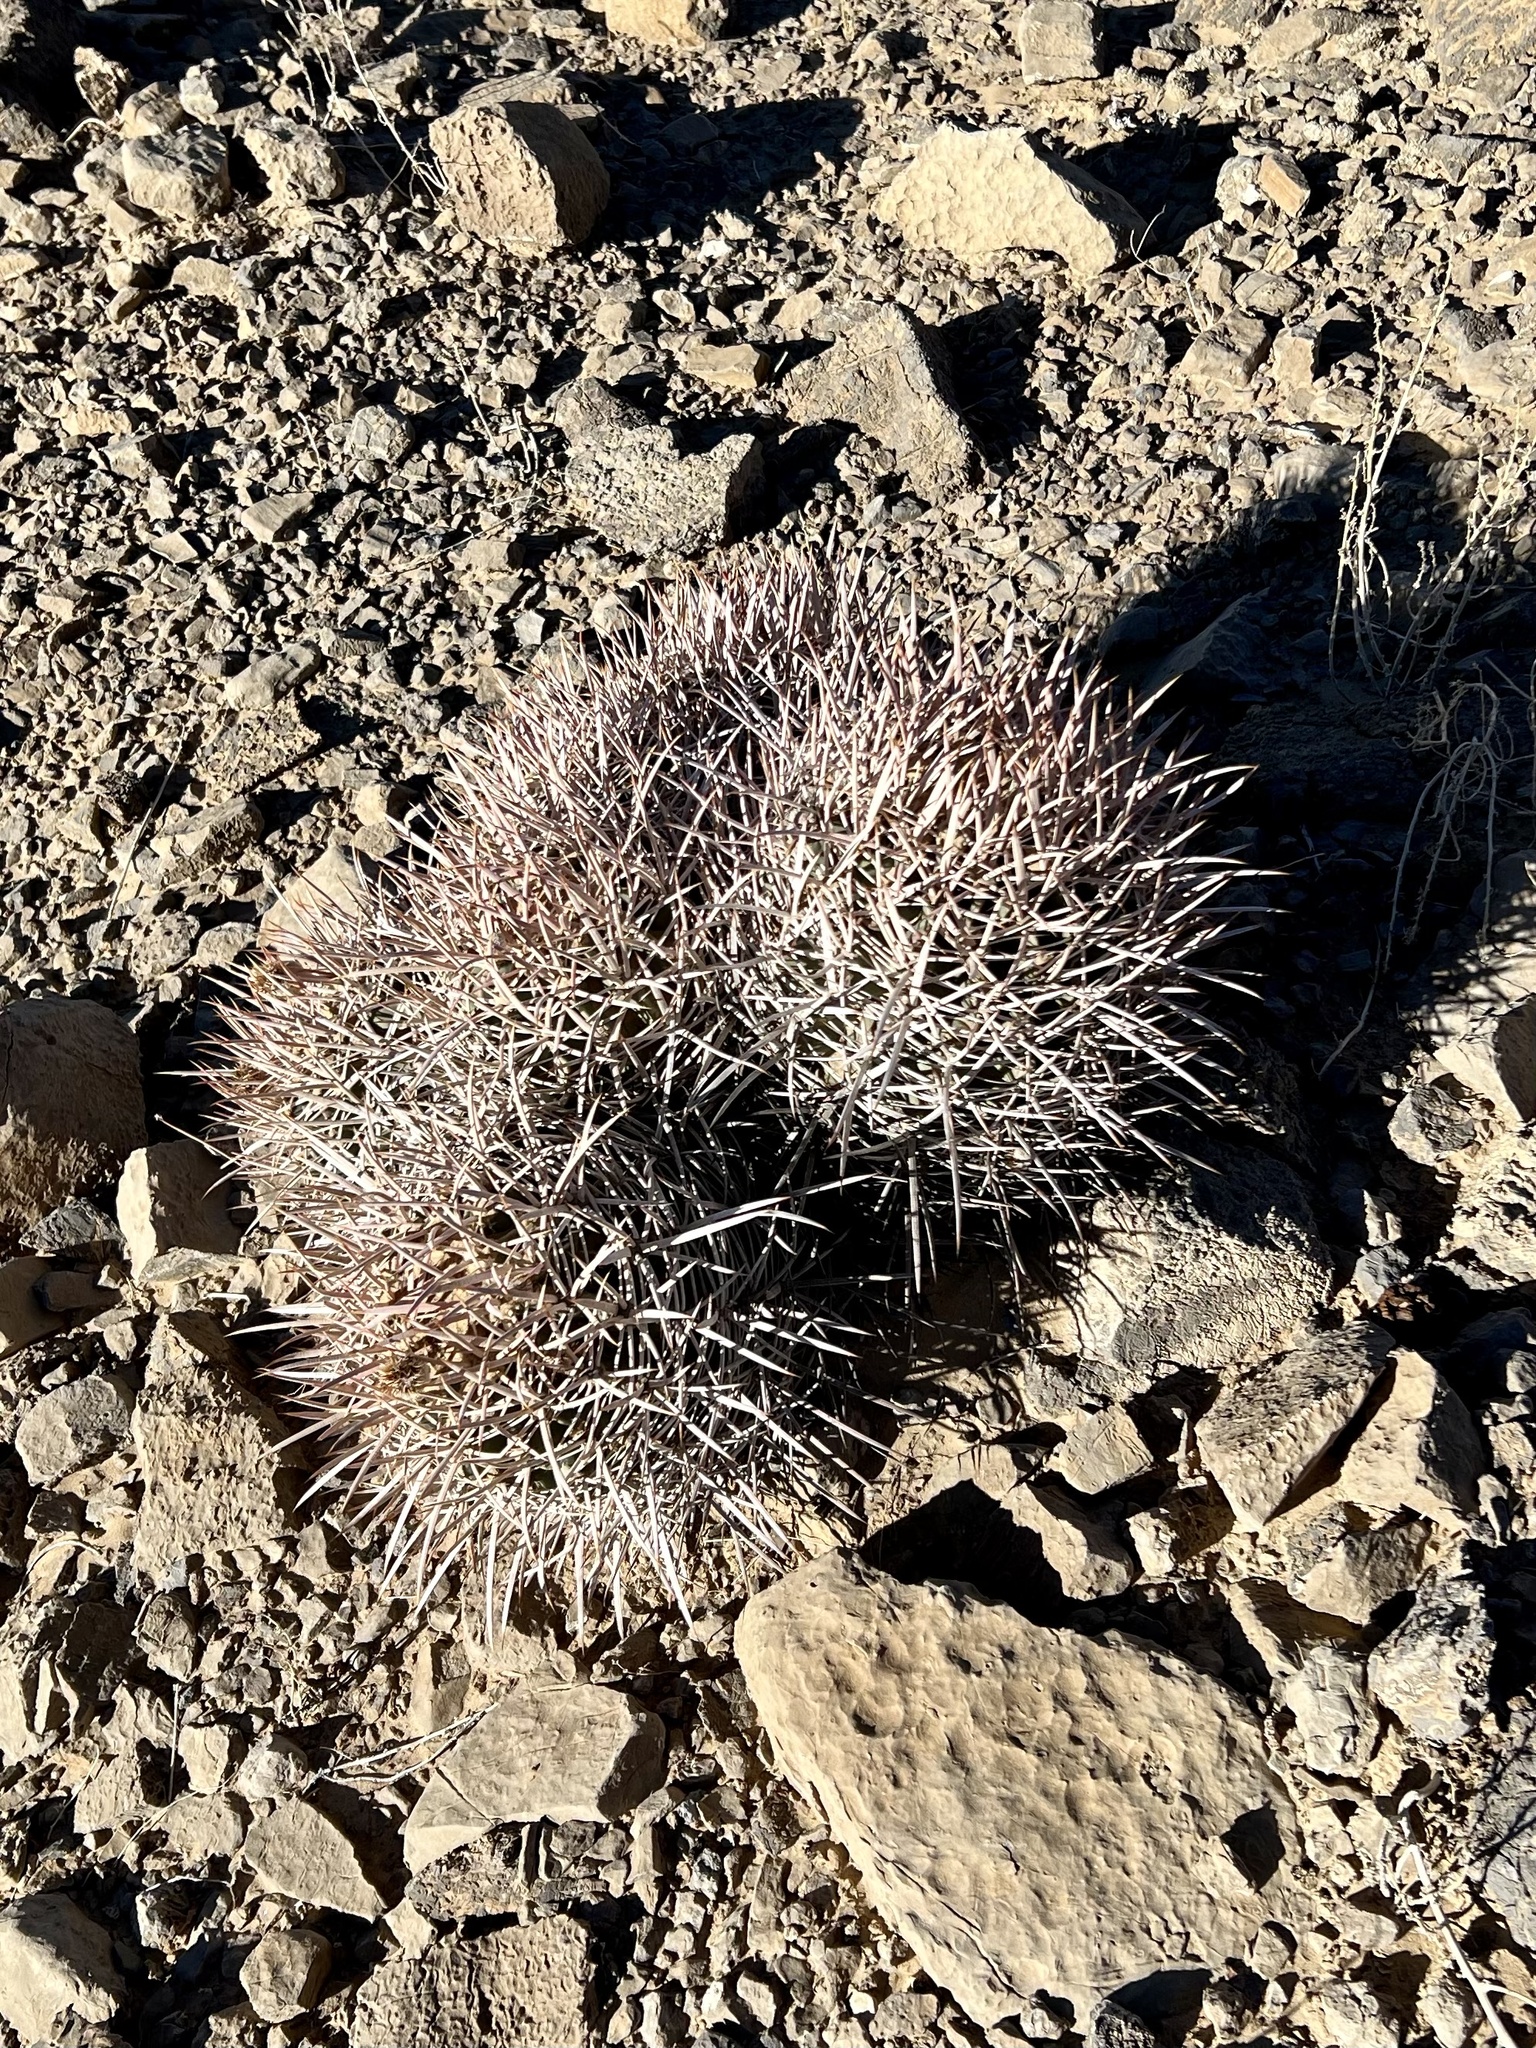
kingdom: Plantae
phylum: Tracheophyta
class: Magnoliopsida
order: Caryophyllales
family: Cactaceae
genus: Echinocactus
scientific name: Echinocactus polycephalus
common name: Cottontop cactus
